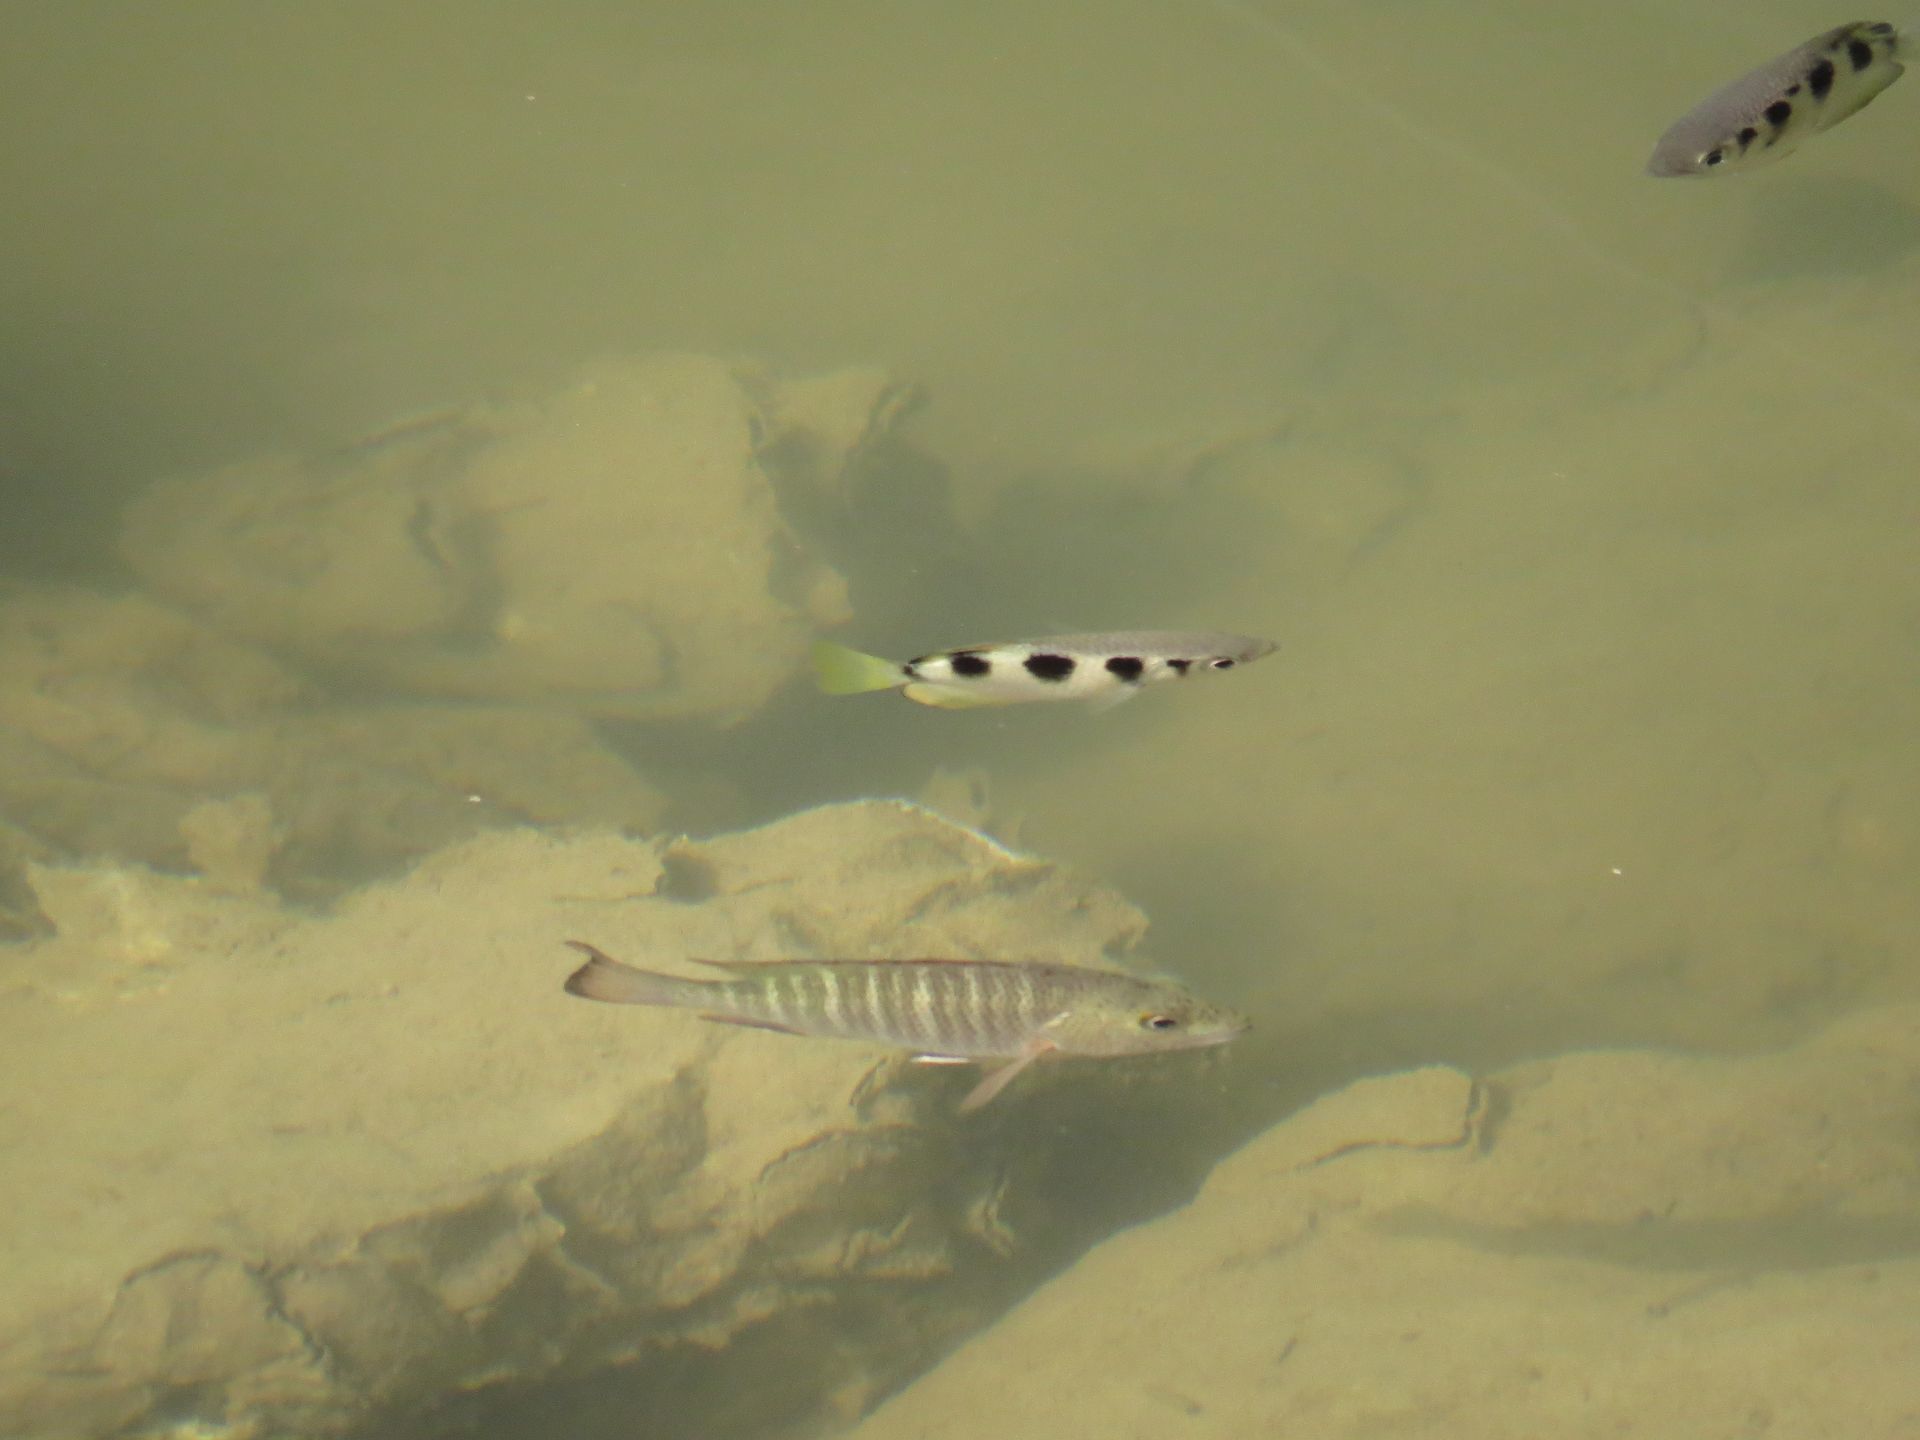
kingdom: Animalia
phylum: Chordata
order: Perciformes
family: Lutjanidae
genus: Lutjanus
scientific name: Lutjanus argentimaculatus
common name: Mangrove red snapper
